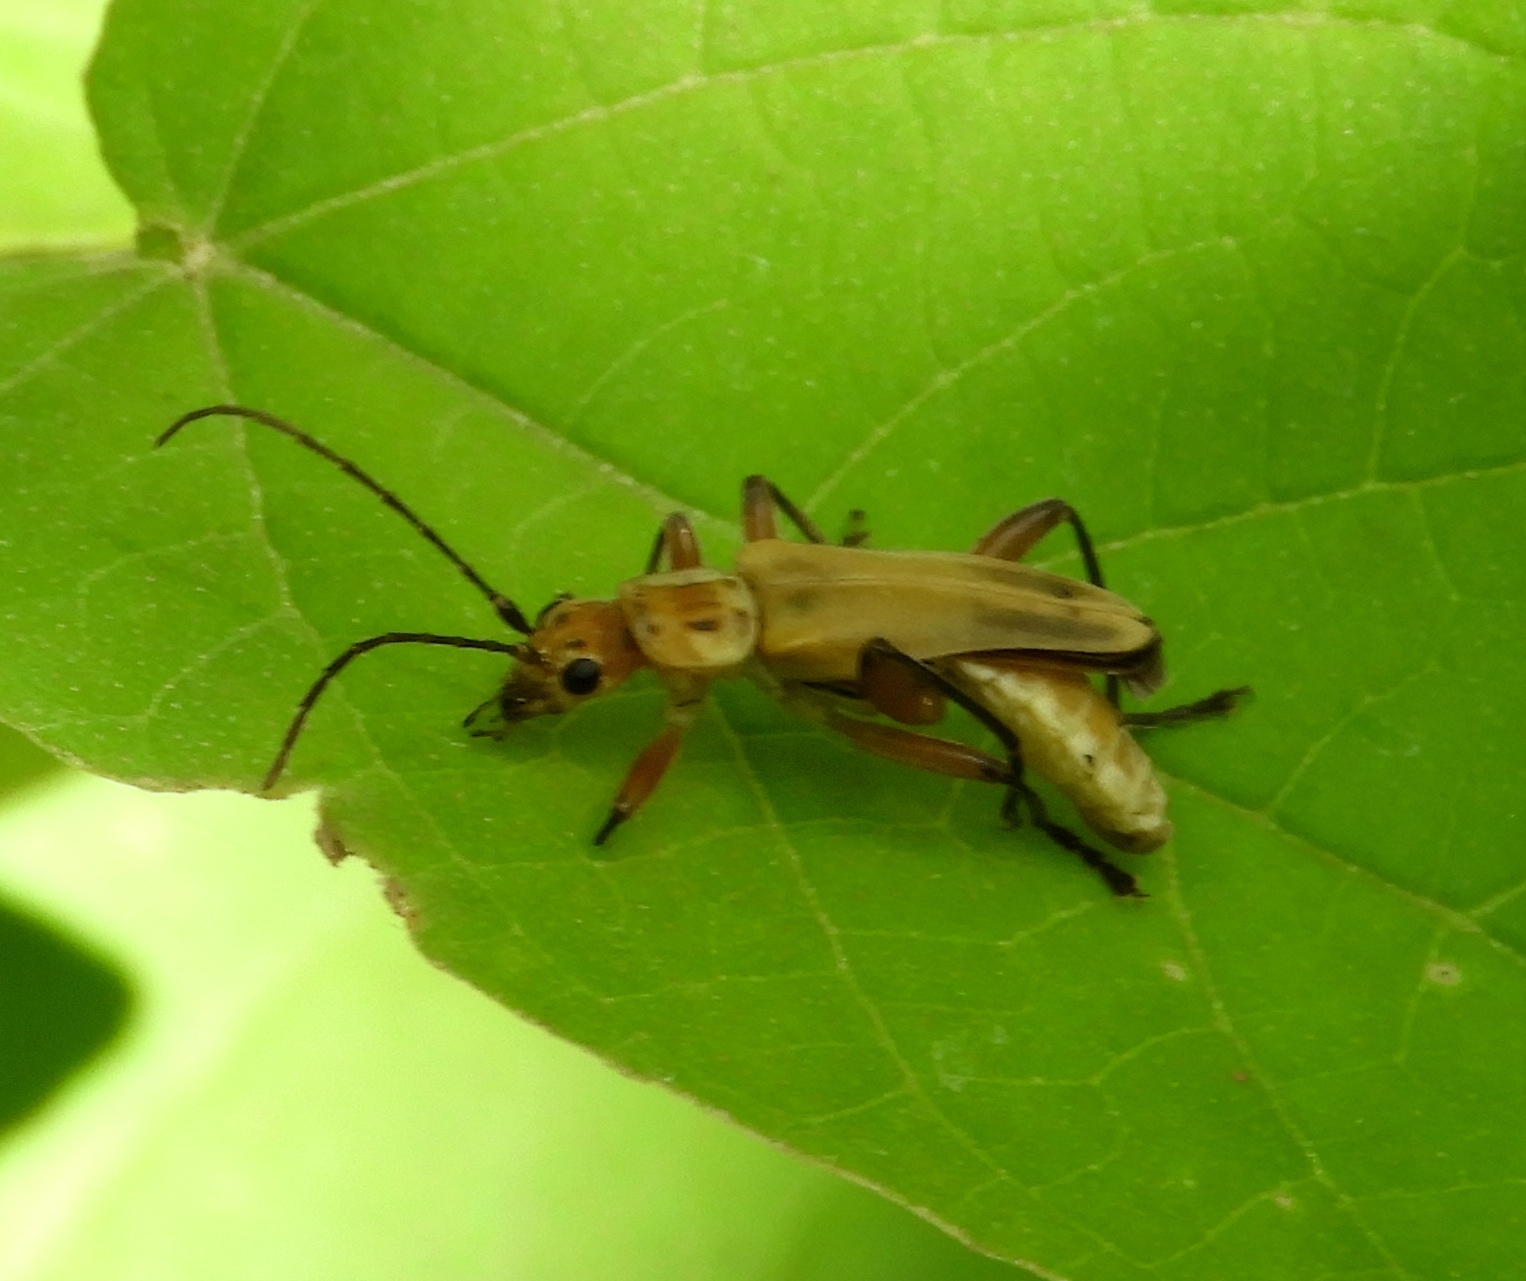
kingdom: Animalia
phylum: Arthropoda
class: Insecta
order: Coleoptera
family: Cantharidae
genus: Chauliognathus
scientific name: Chauliognathus
